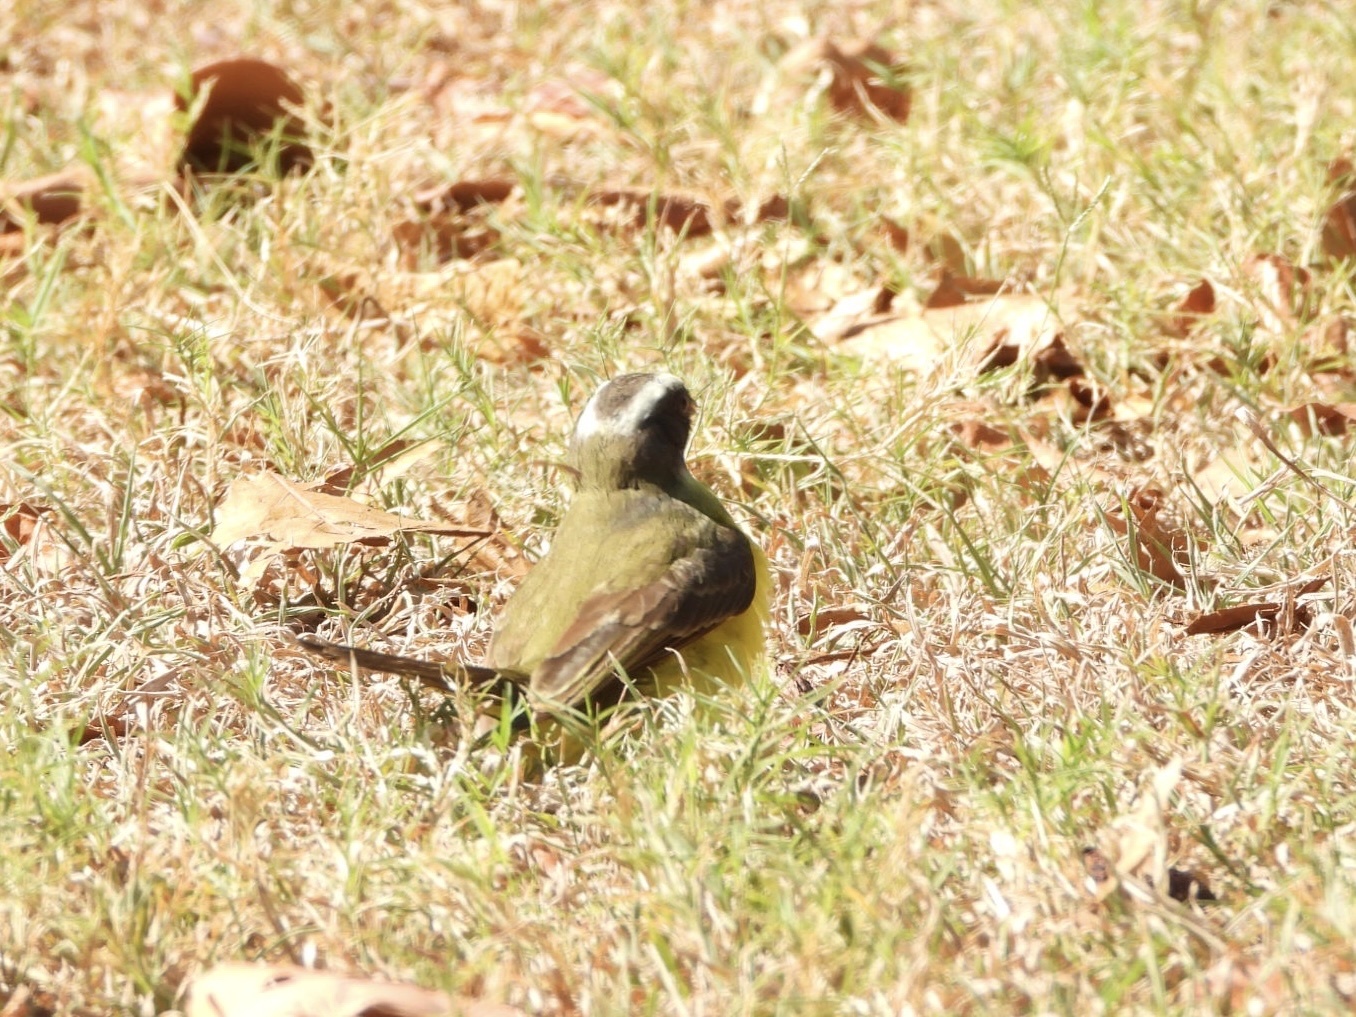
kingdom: Animalia
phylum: Chordata
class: Aves
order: Passeriformes
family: Tyrannidae
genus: Myiozetetes
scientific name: Myiozetetes similis
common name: Social flycatcher
